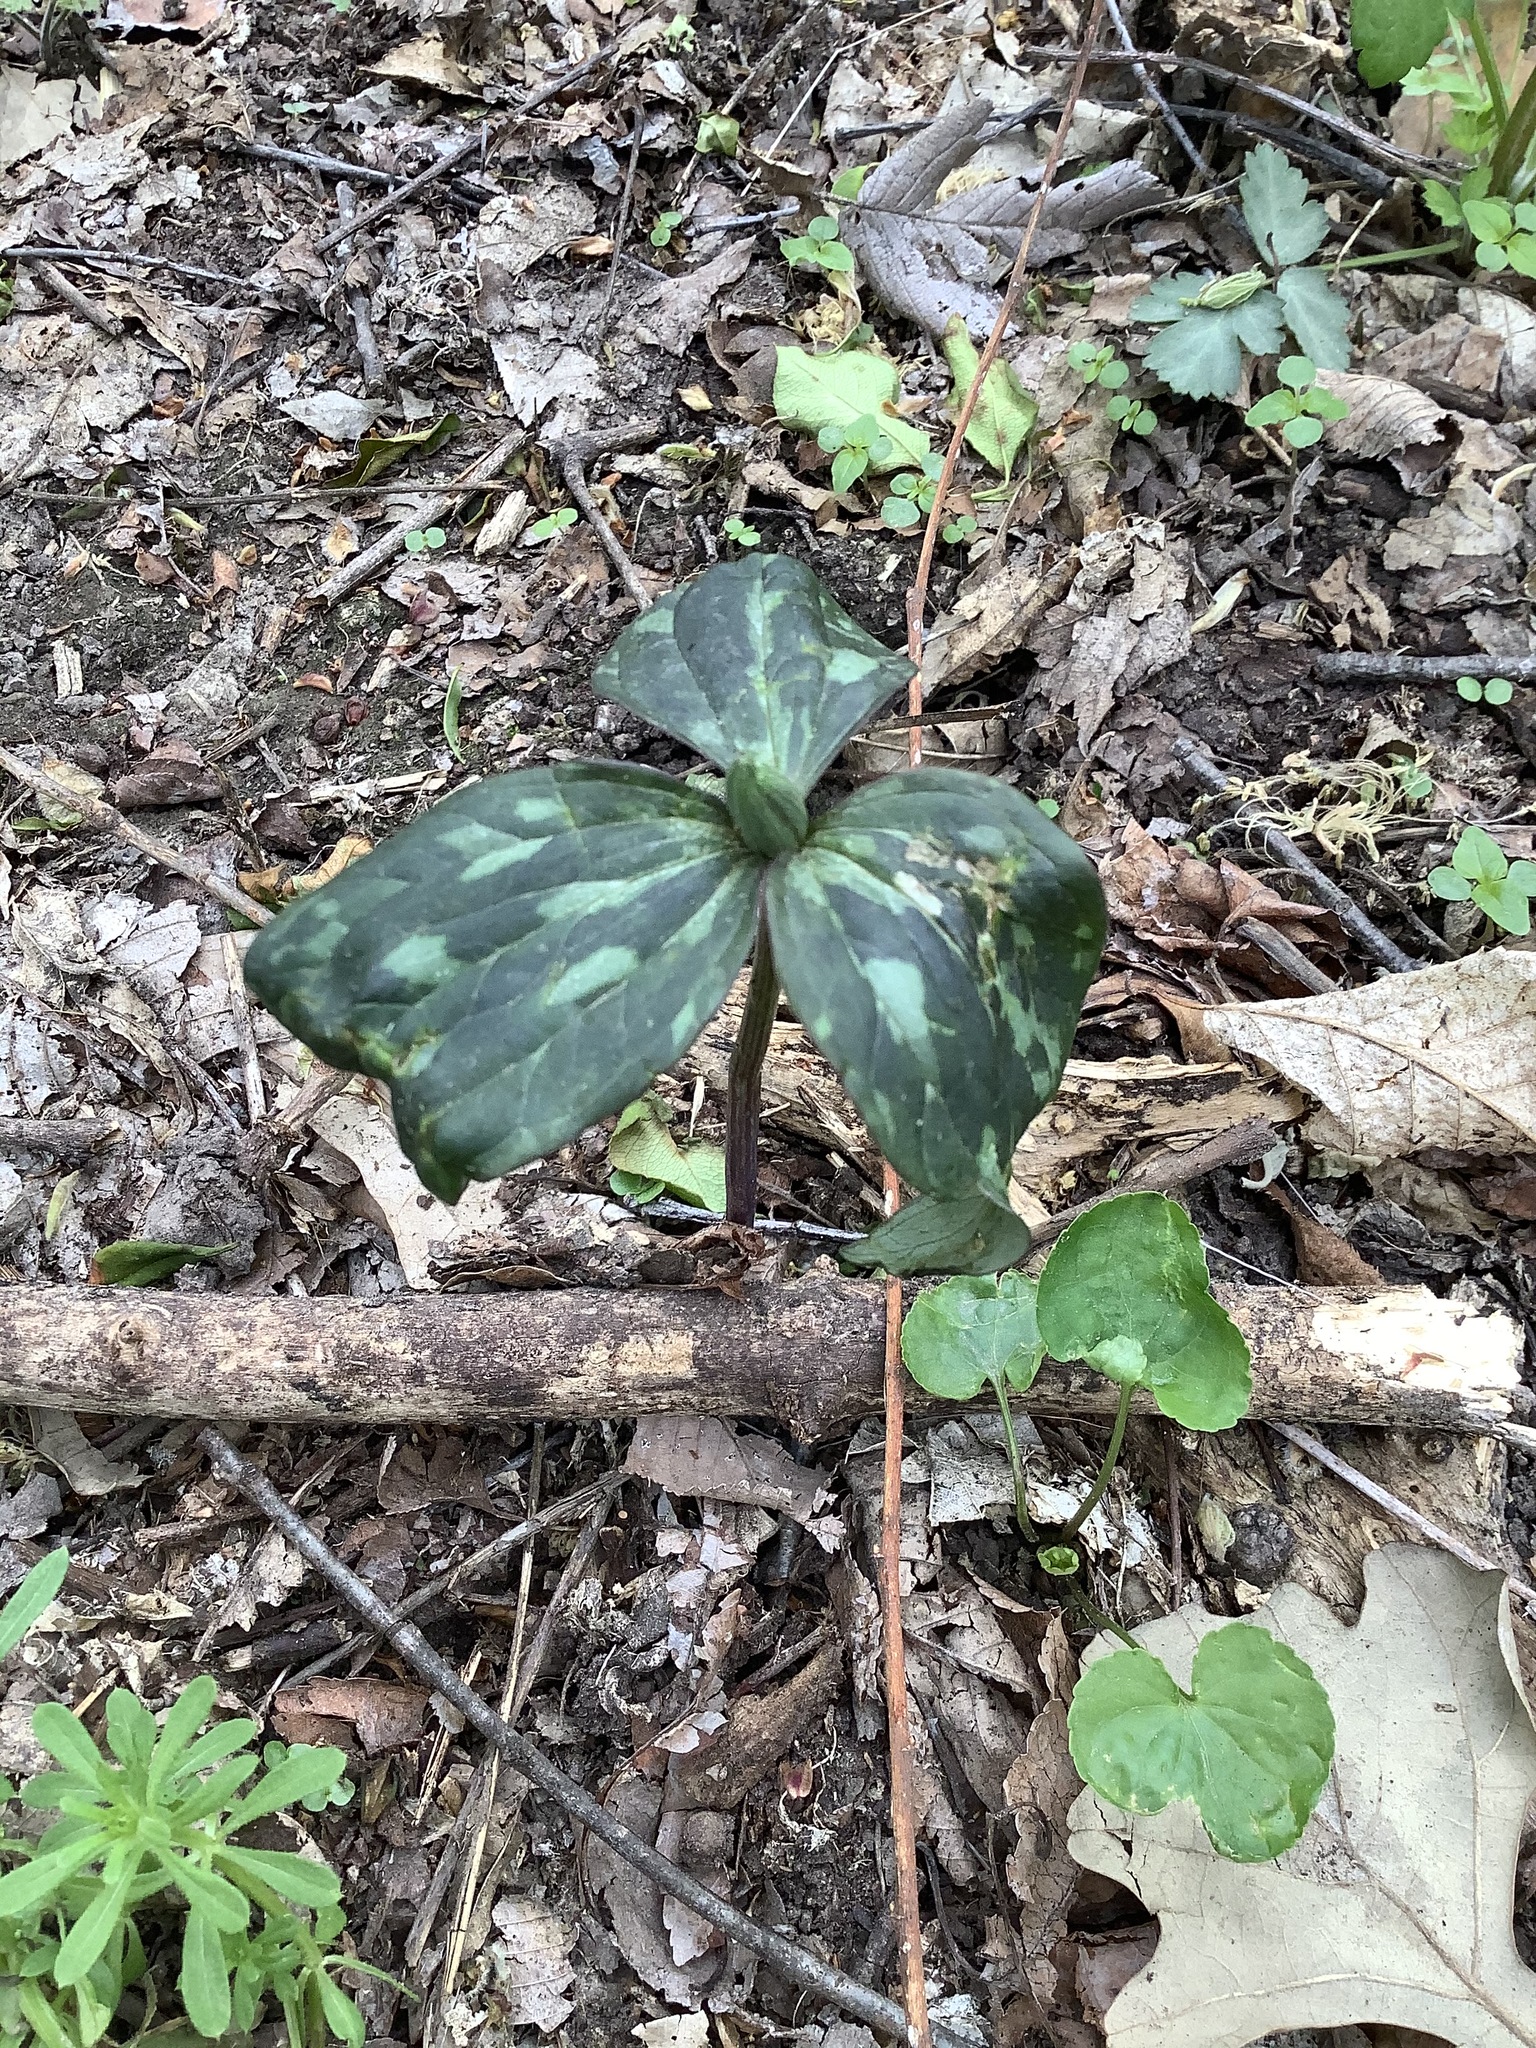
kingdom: Plantae
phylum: Tracheophyta
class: Liliopsida
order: Liliales
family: Melanthiaceae
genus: Trillium
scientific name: Trillium recurvatum
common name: Bloody butcher
